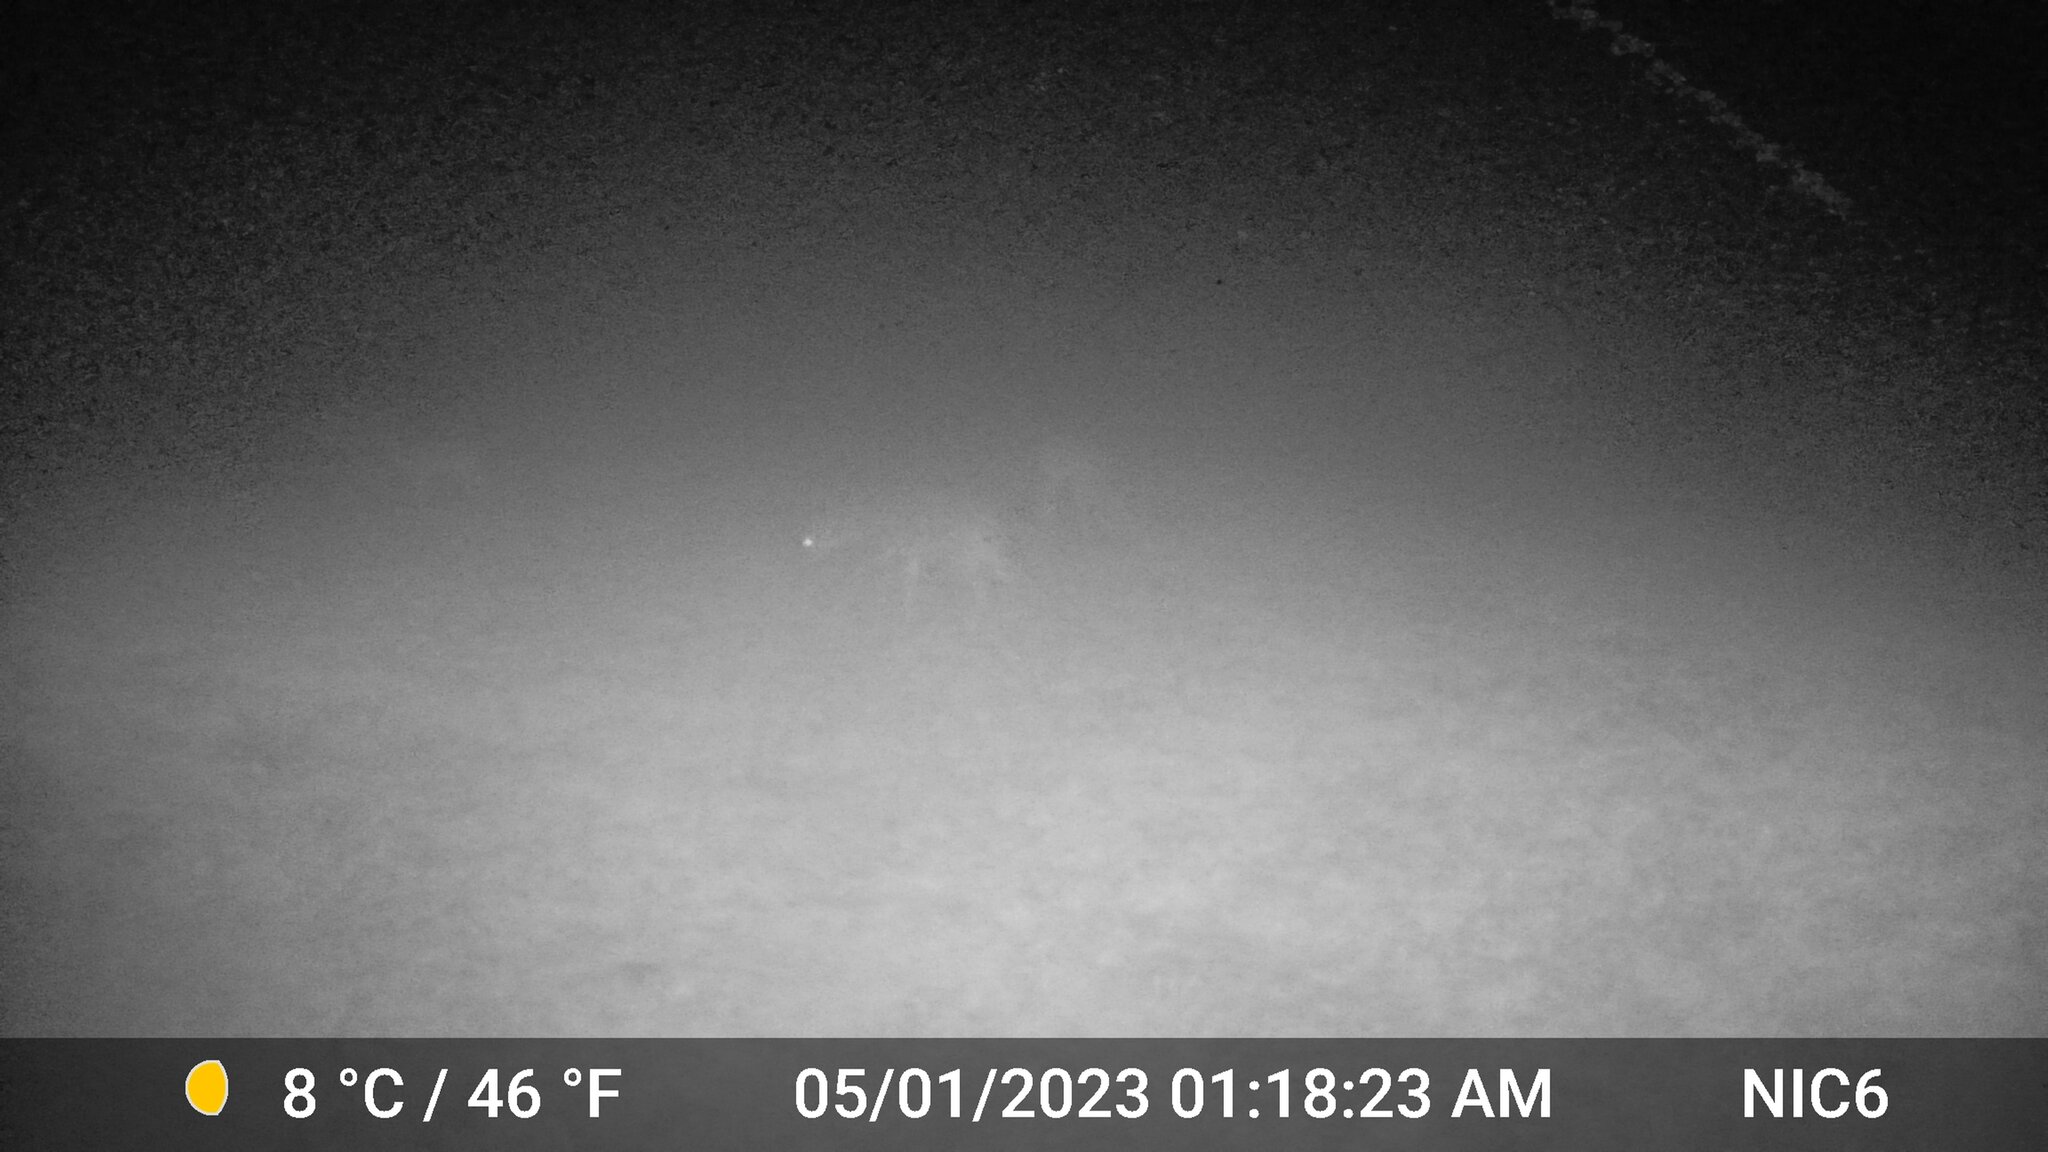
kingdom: Animalia
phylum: Chordata
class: Mammalia
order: Artiodactyla
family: Cervidae
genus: Odocoileus
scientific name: Odocoileus virginianus
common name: White-tailed deer
